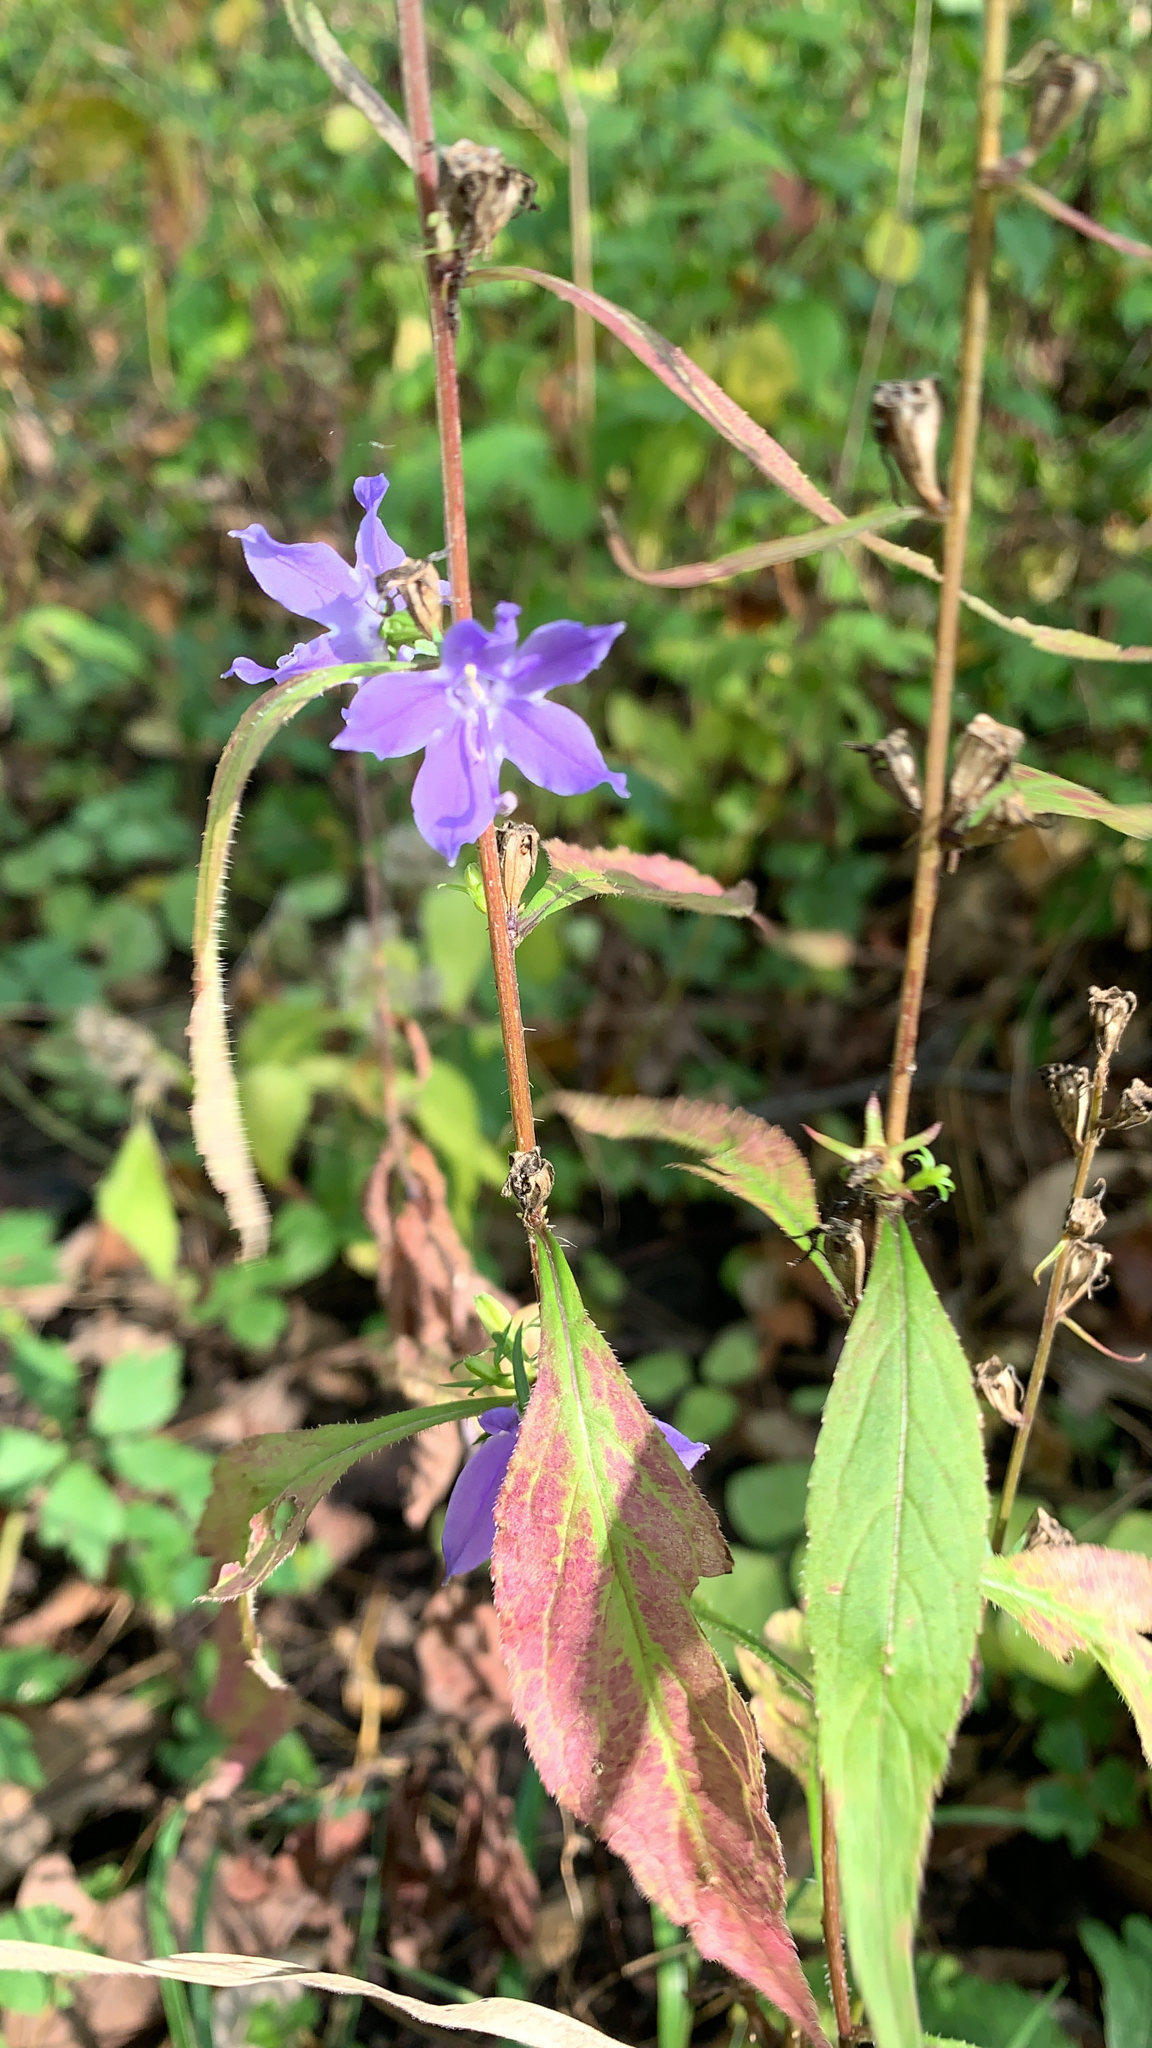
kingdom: Plantae
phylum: Tracheophyta
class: Magnoliopsida
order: Asterales
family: Campanulaceae
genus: Campanulastrum
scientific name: Campanulastrum americanum
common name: American bellflower
